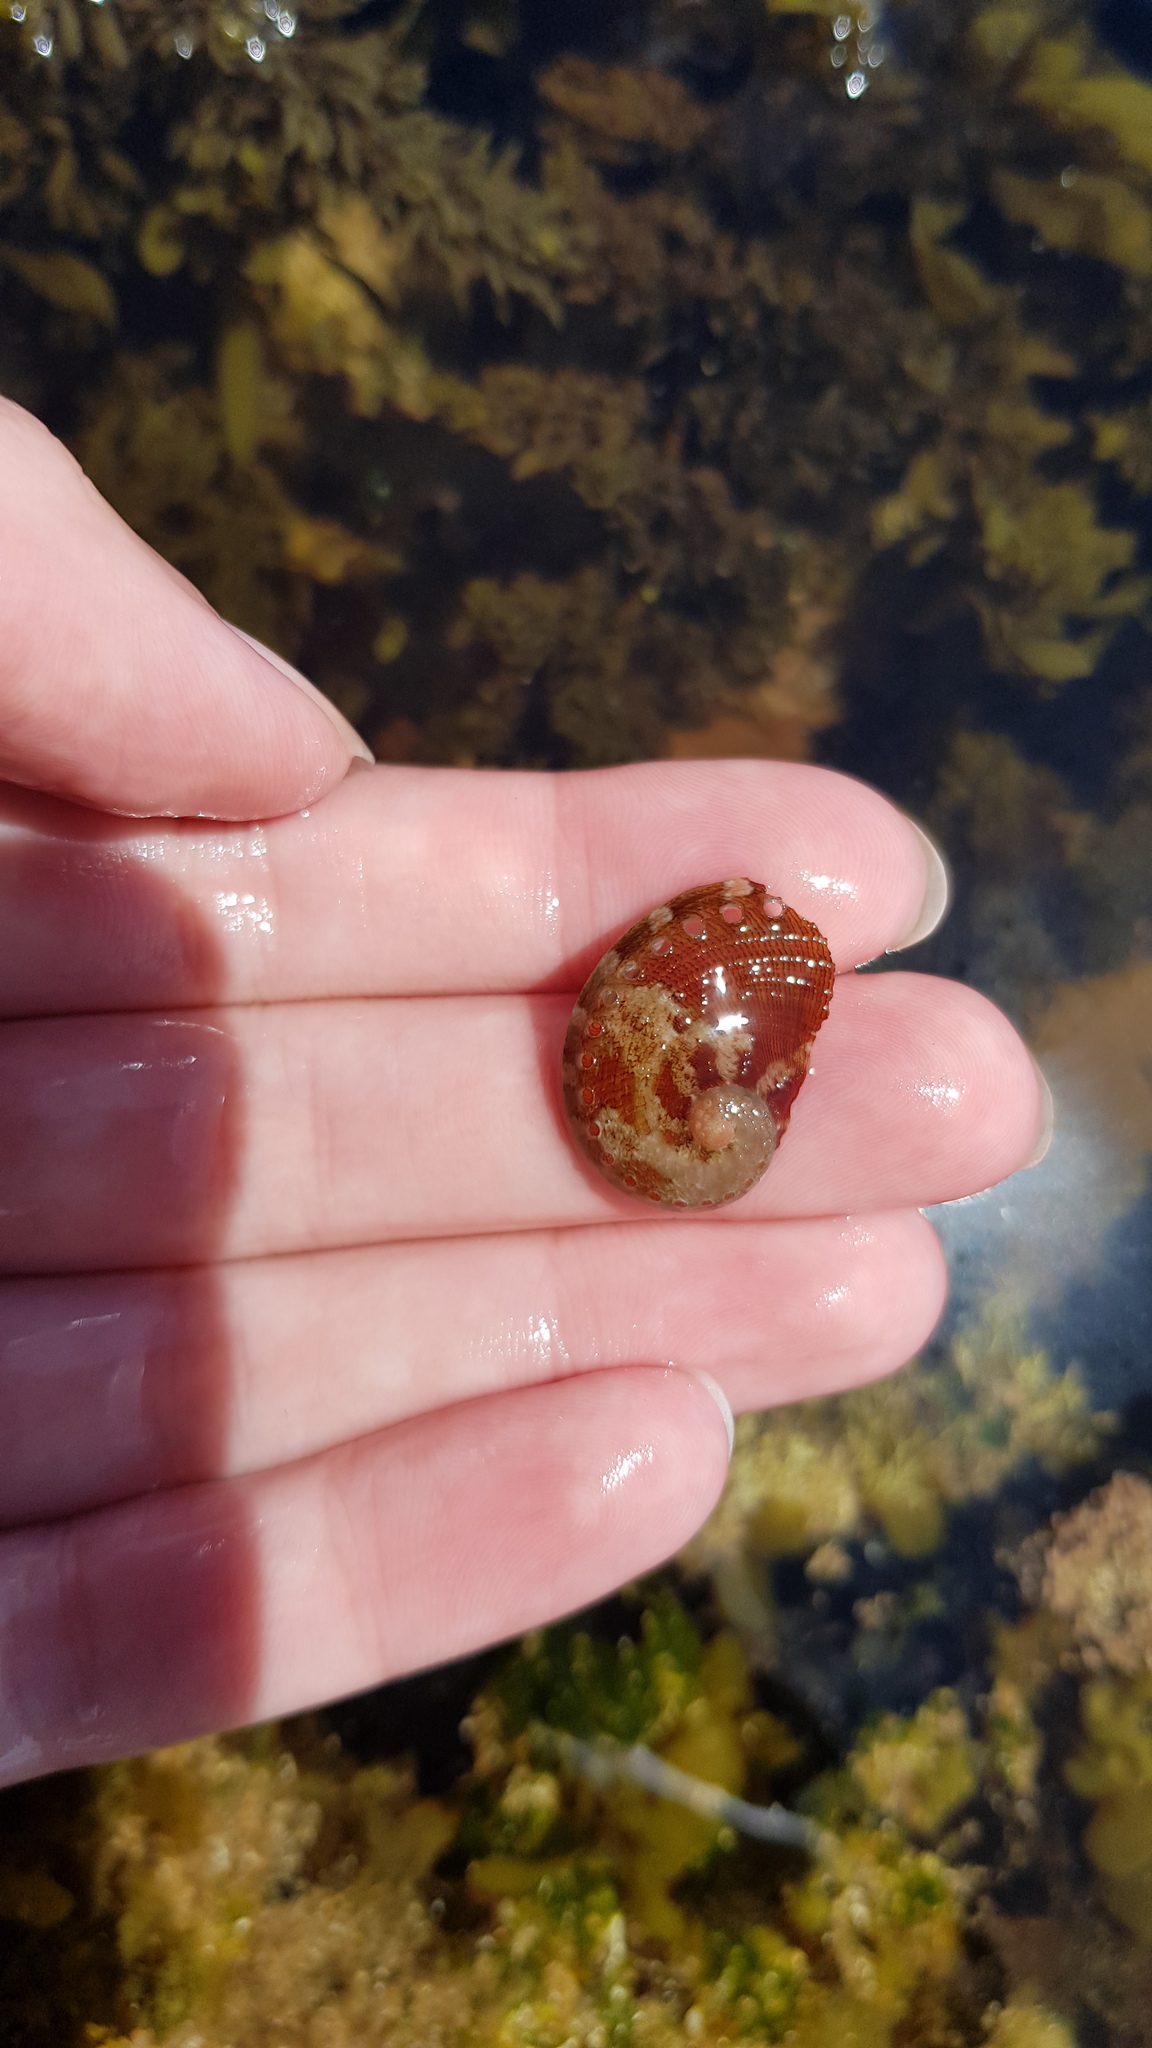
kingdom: Animalia
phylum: Mollusca
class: Gastropoda
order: Lepetellida
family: Haliotidae
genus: Haliotis
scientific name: Haliotis coccoradiata
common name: Reddish-rayed abalone
